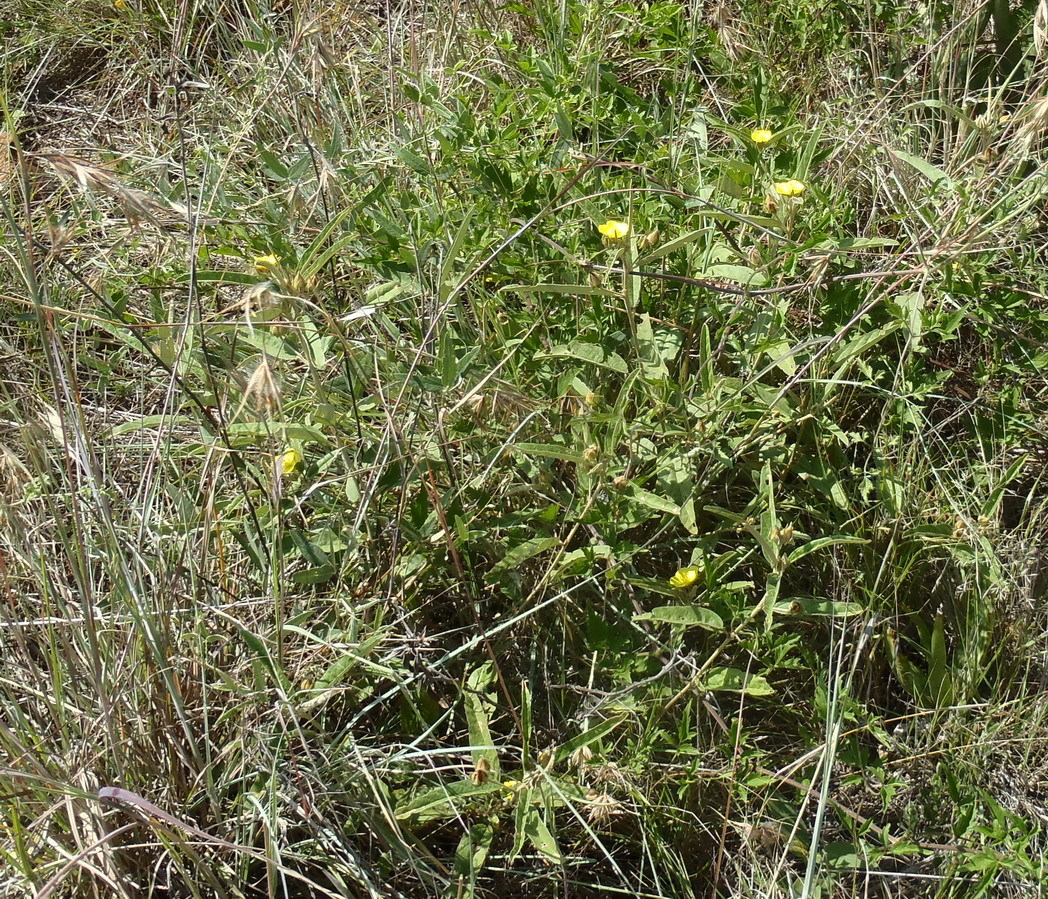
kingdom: Plantae
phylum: Tracheophyta
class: Magnoliopsida
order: Malvales
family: Malvaceae
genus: Melhania
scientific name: Melhania prostrata
